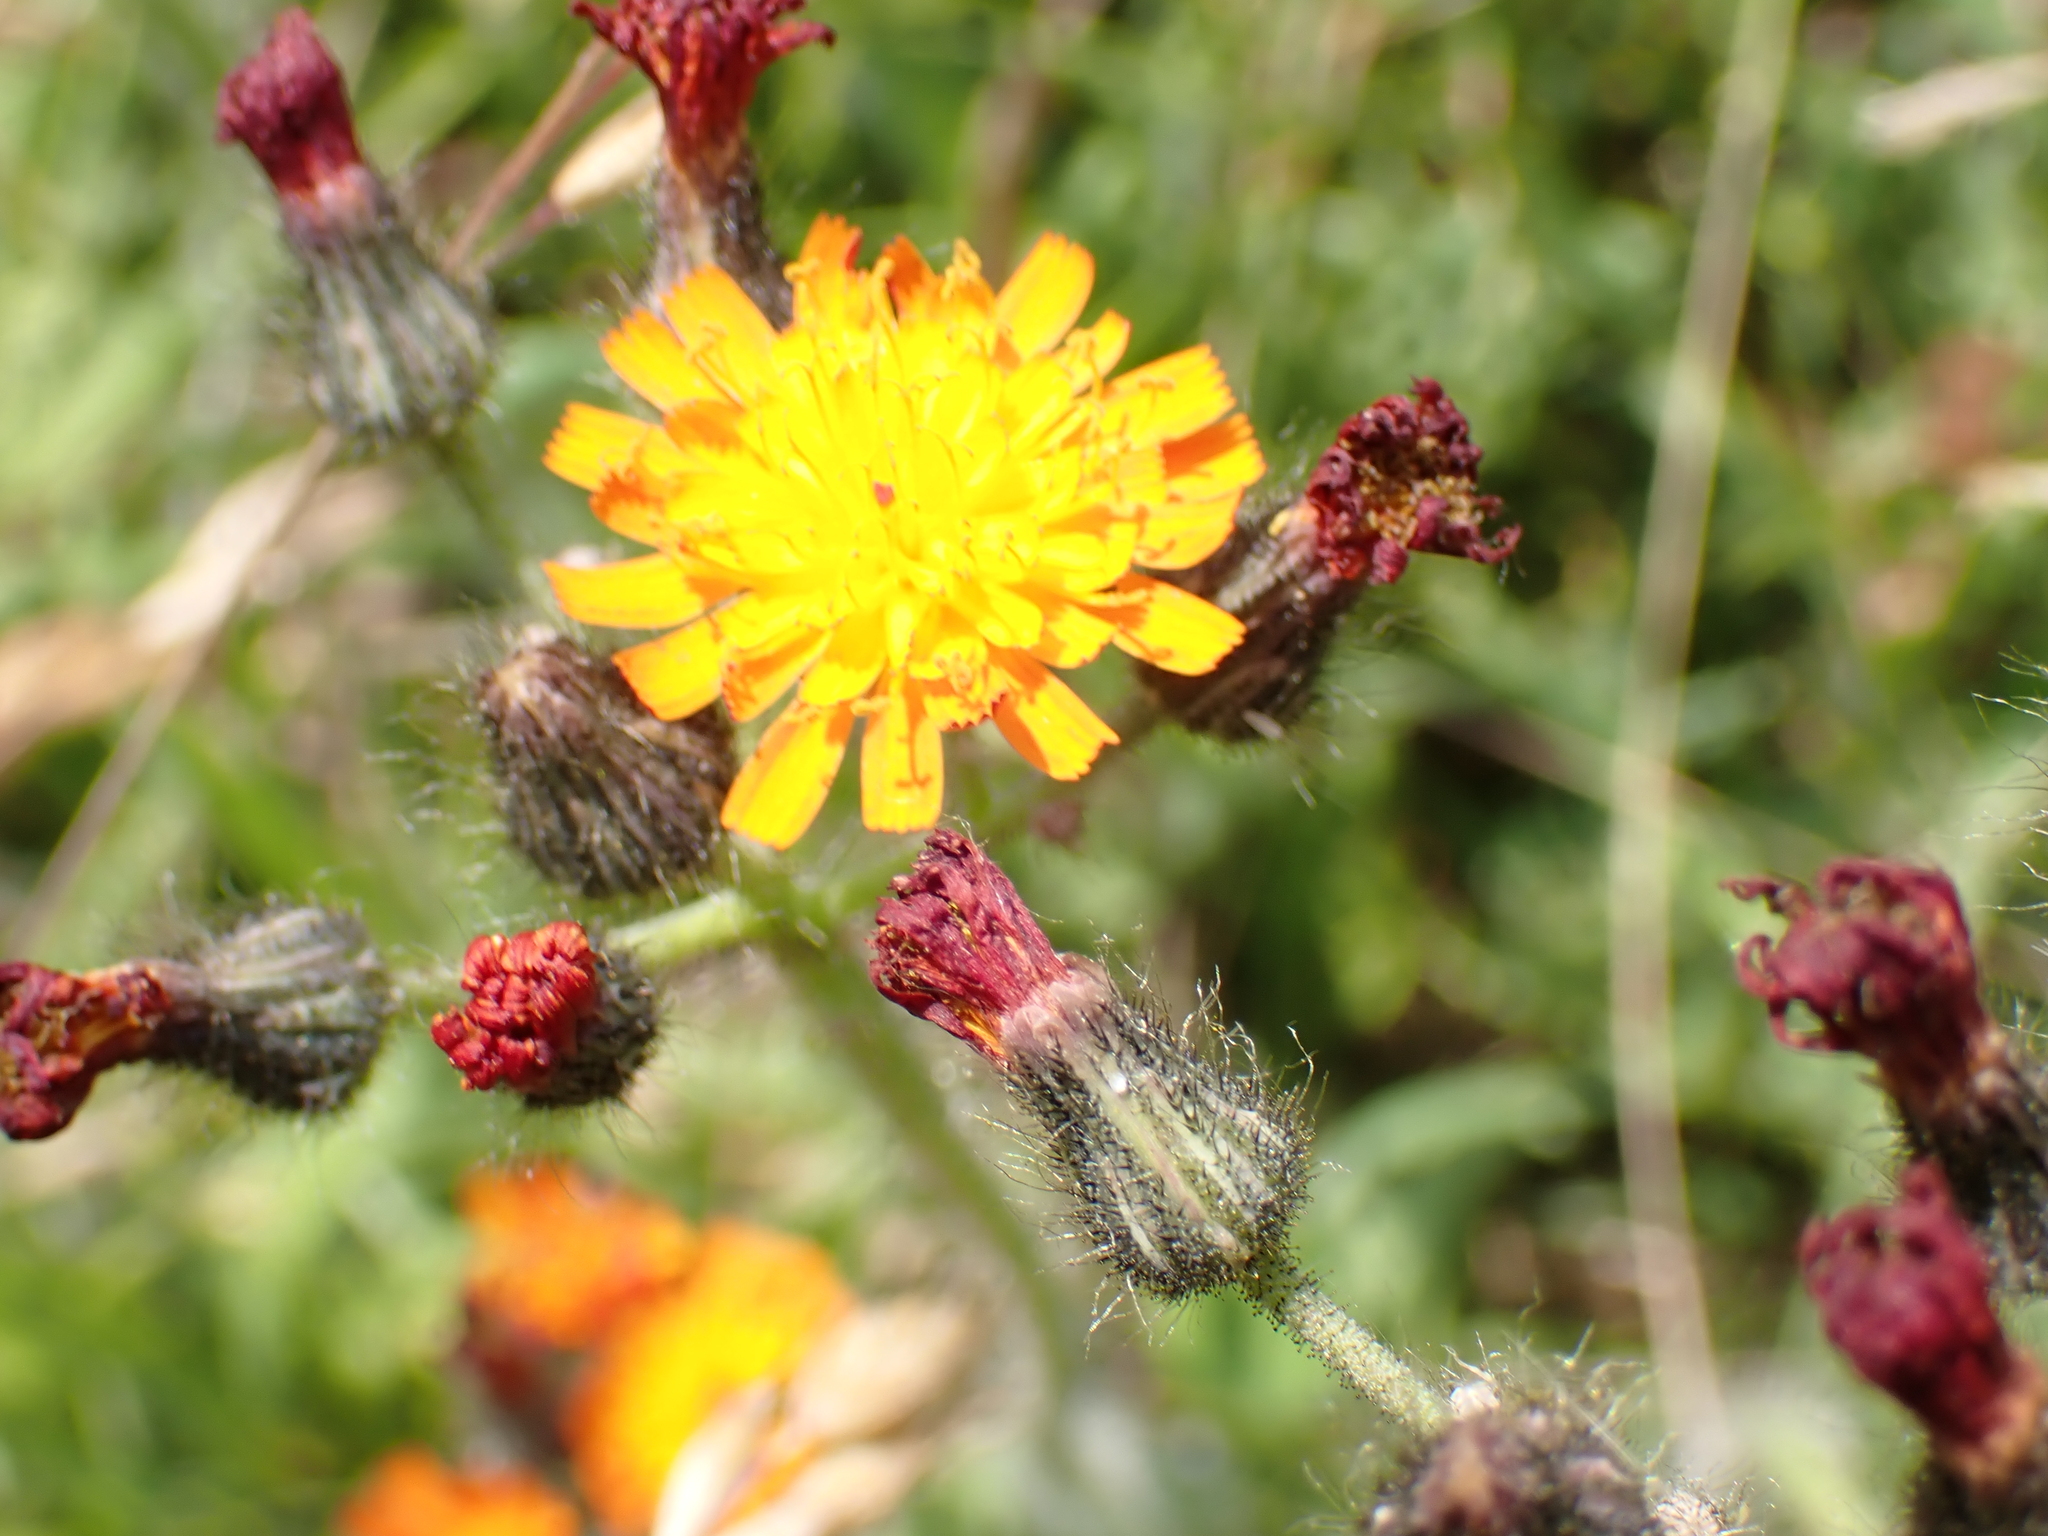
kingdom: Plantae
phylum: Tracheophyta
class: Magnoliopsida
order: Asterales
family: Asteraceae
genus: Pilosella
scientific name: Pilosella aurantiaca
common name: Fox-and-cubs
